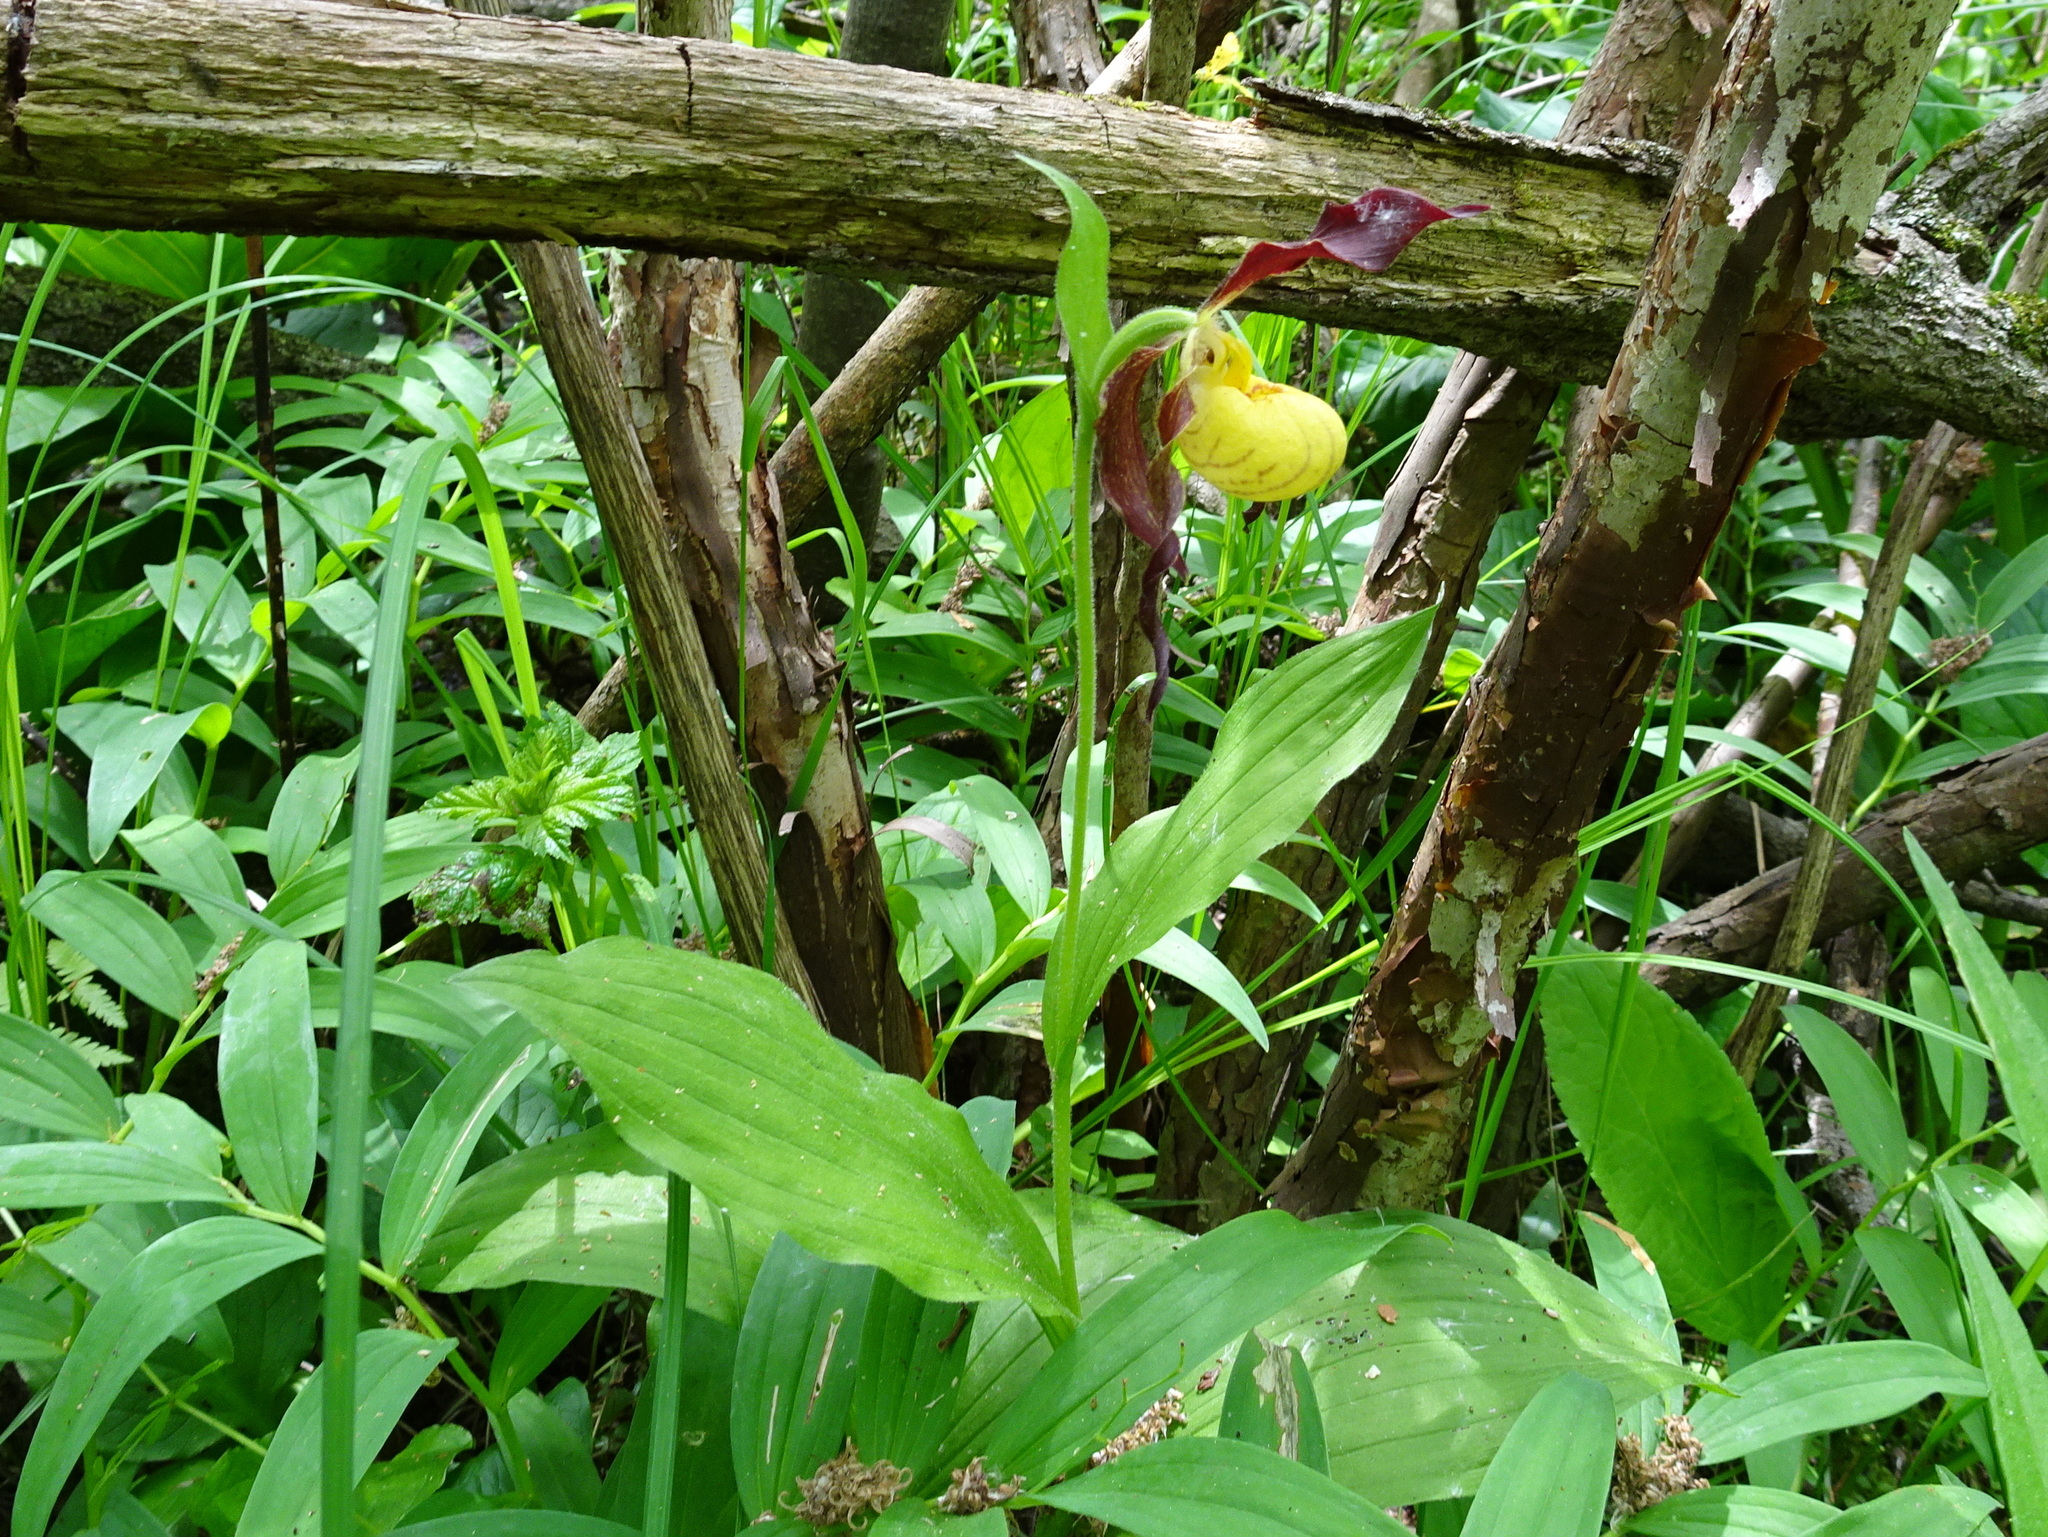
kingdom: Plantae
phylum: Tracheophyta
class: Liliopsida
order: Asparagales
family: Orchidaceae
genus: Cypripedium
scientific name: Cypripedium parviflorum
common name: American yellow lady's-slipper
